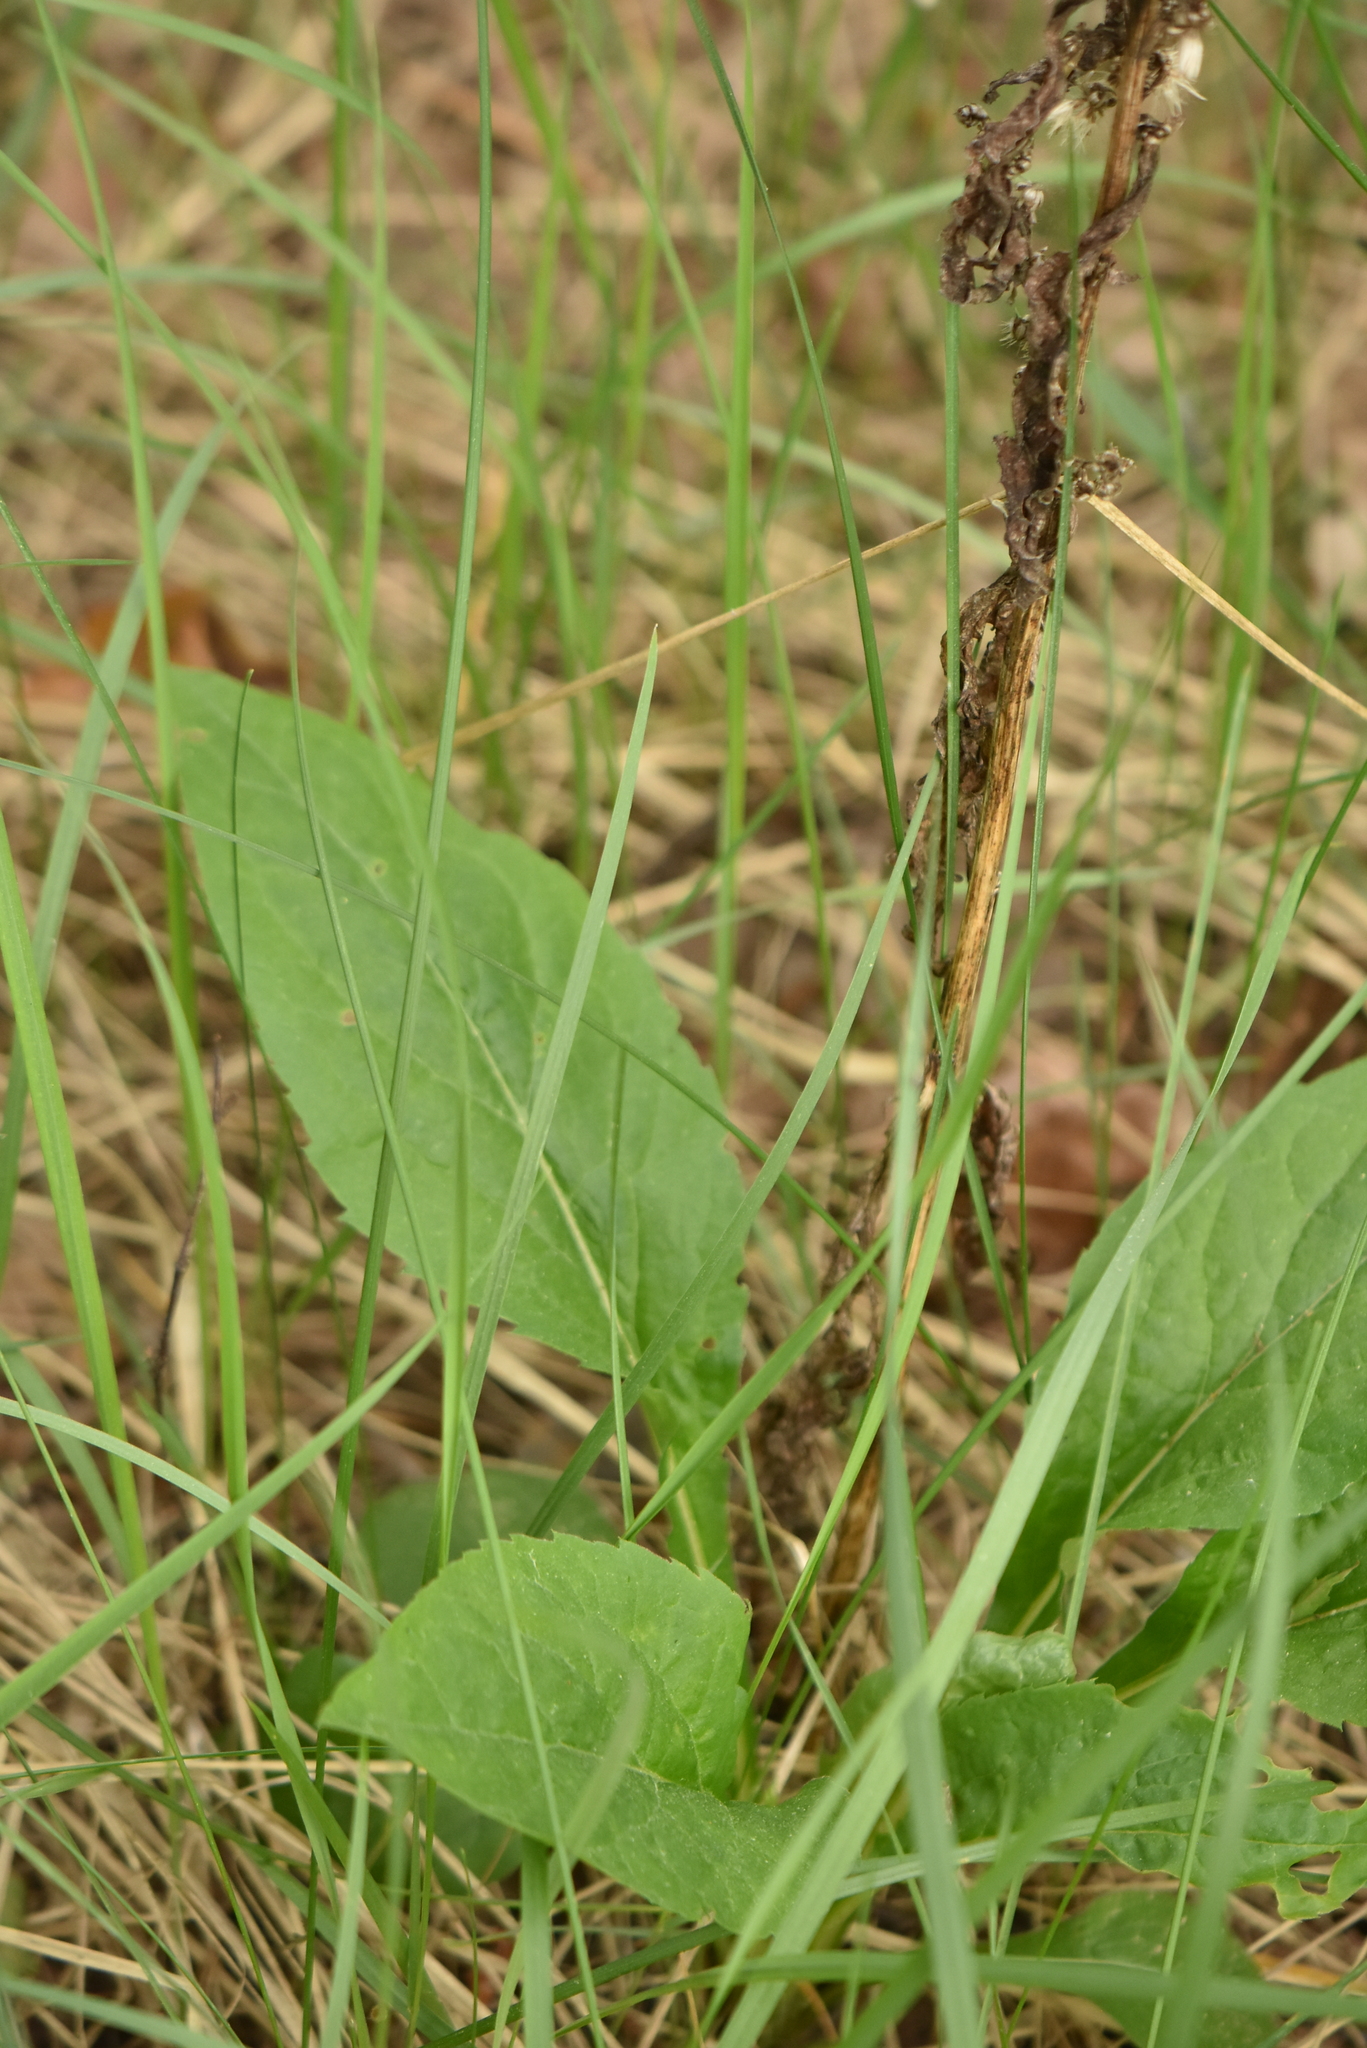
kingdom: Plantae
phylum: Tracheophyta
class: Magnoliopsida
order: Asterales
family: Asteraceae
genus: Solidago
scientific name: Solidago virgaurea
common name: Goldenrod
